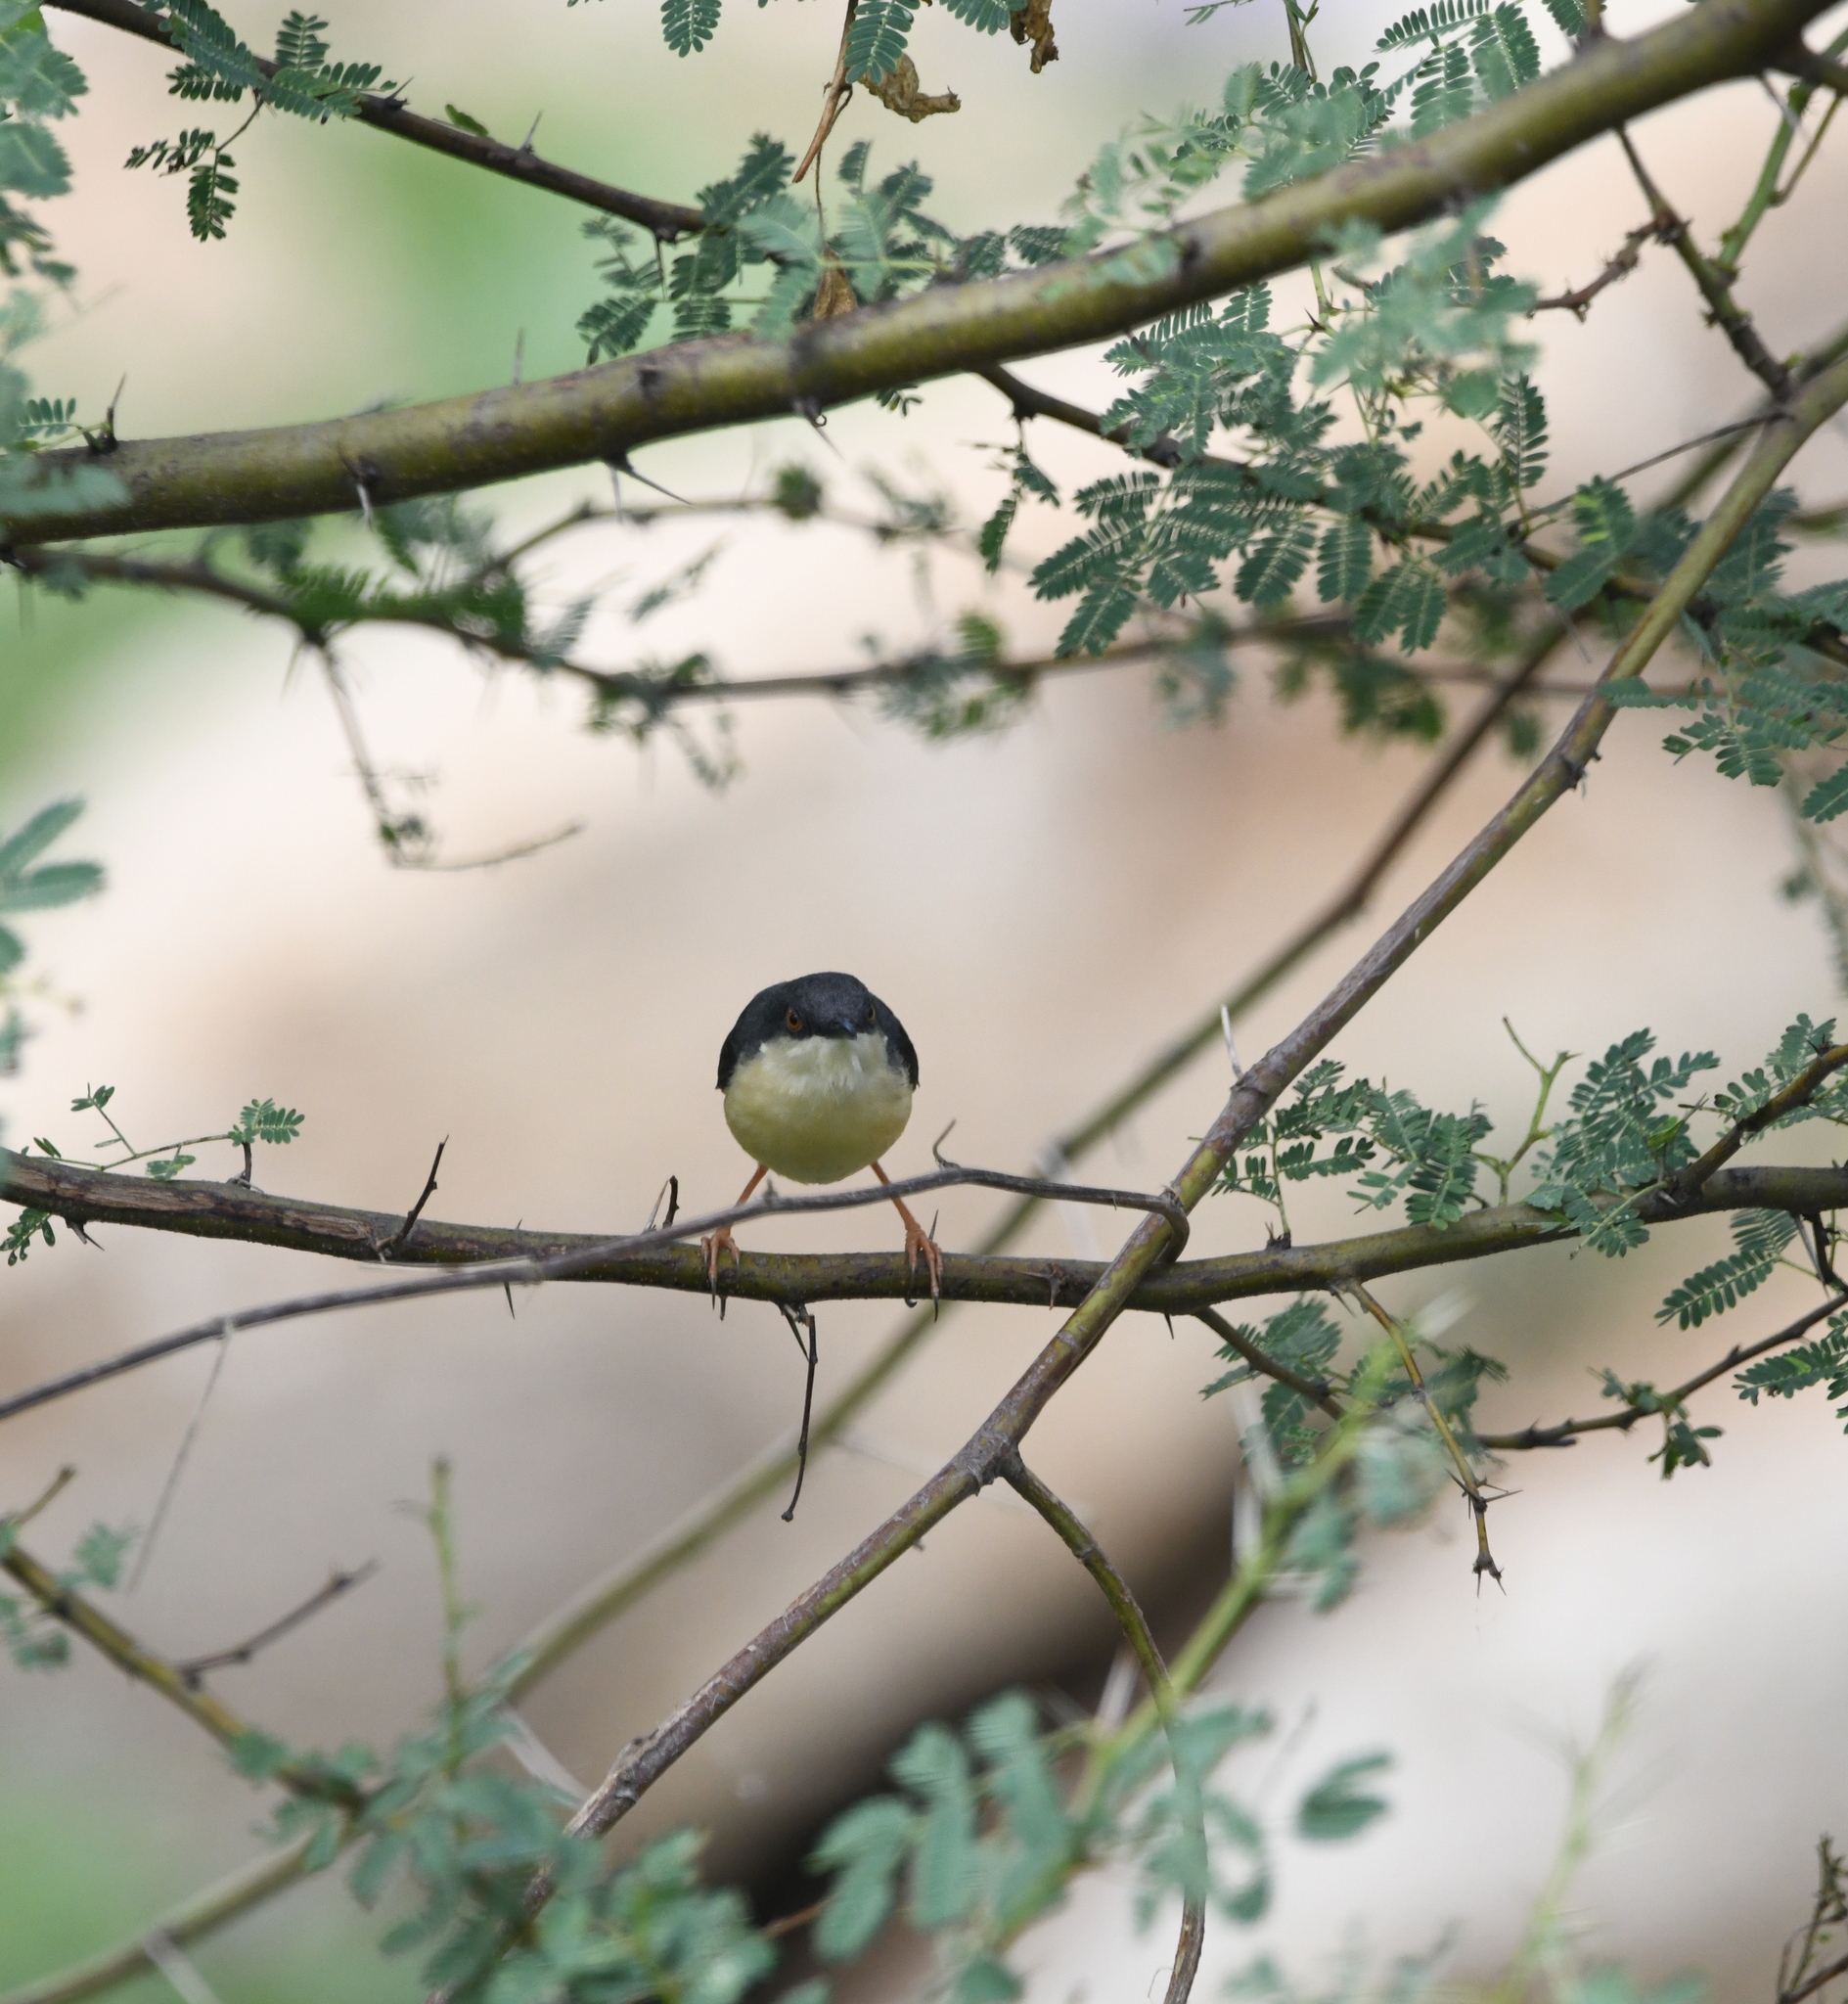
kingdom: Animalia
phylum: Chordata
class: Aves
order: Passeriformes
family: Cisticolidae
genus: Prinia
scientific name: Prinia socialis
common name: Ashy prinia
